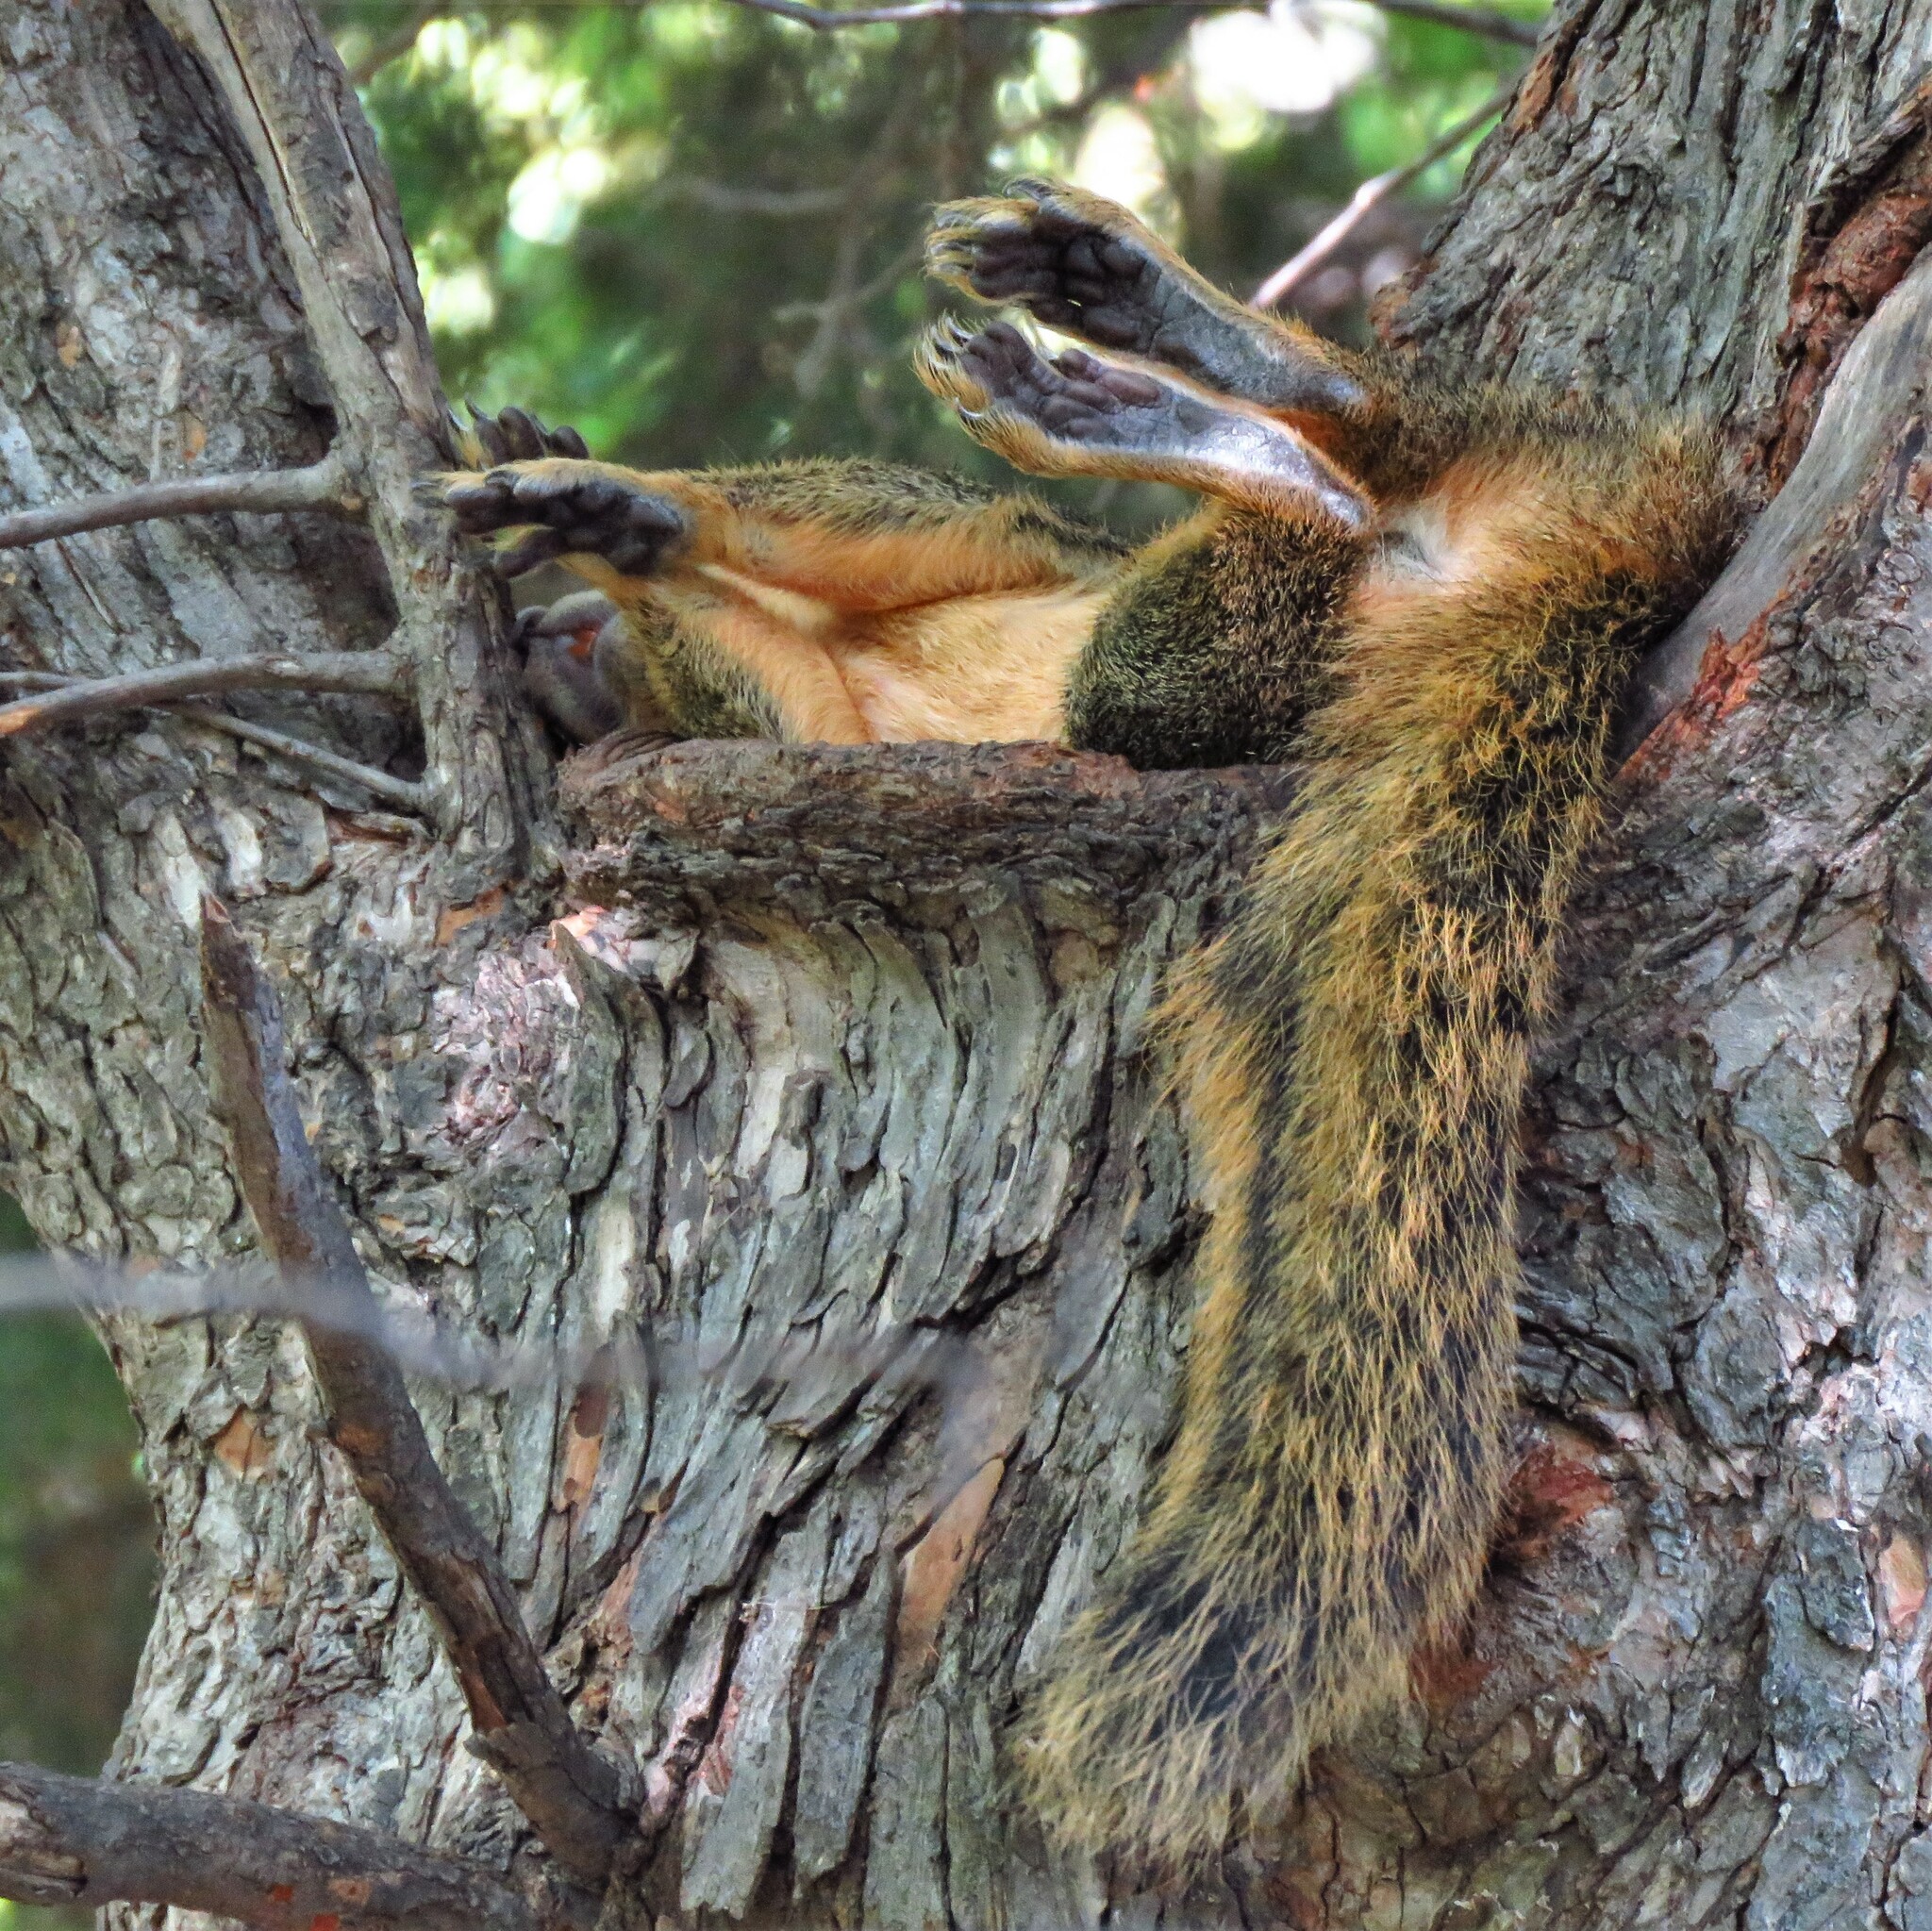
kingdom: Animalia
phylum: Chordata
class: Mammalia
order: Rodentia
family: Sciuridae
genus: Sciurus
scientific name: Sciurus niger
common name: Fox squirrel
